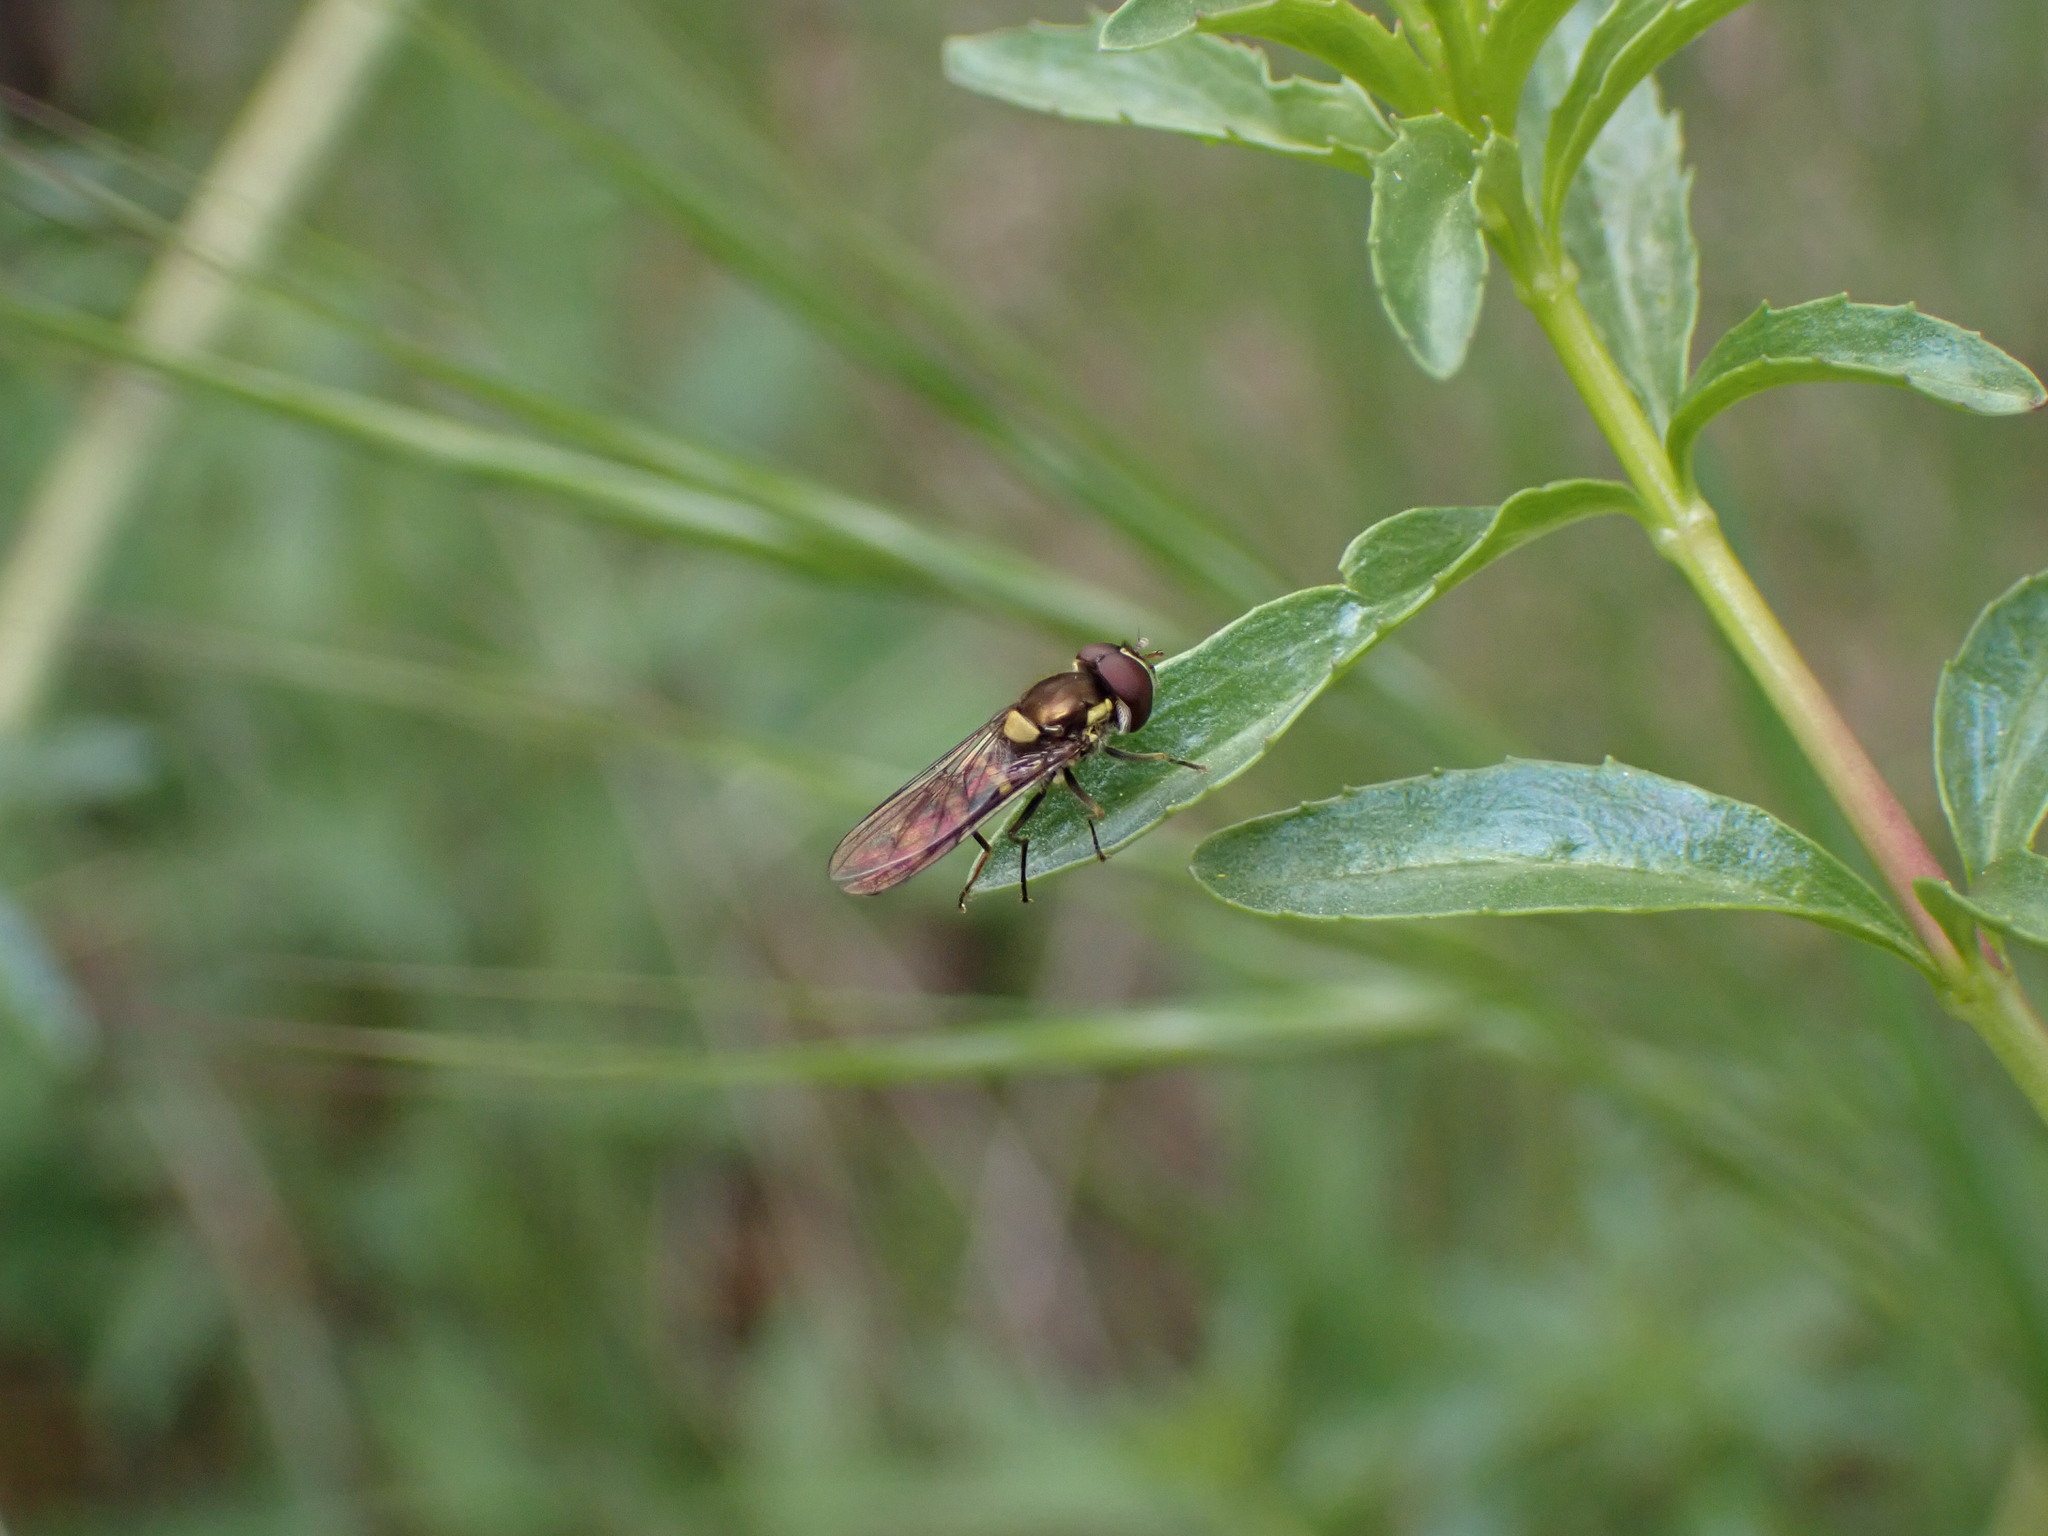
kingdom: Animalia
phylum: Arthropoda
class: Insecta
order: Diptera
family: Syrphidae
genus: Fazia
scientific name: Fazia micrura
